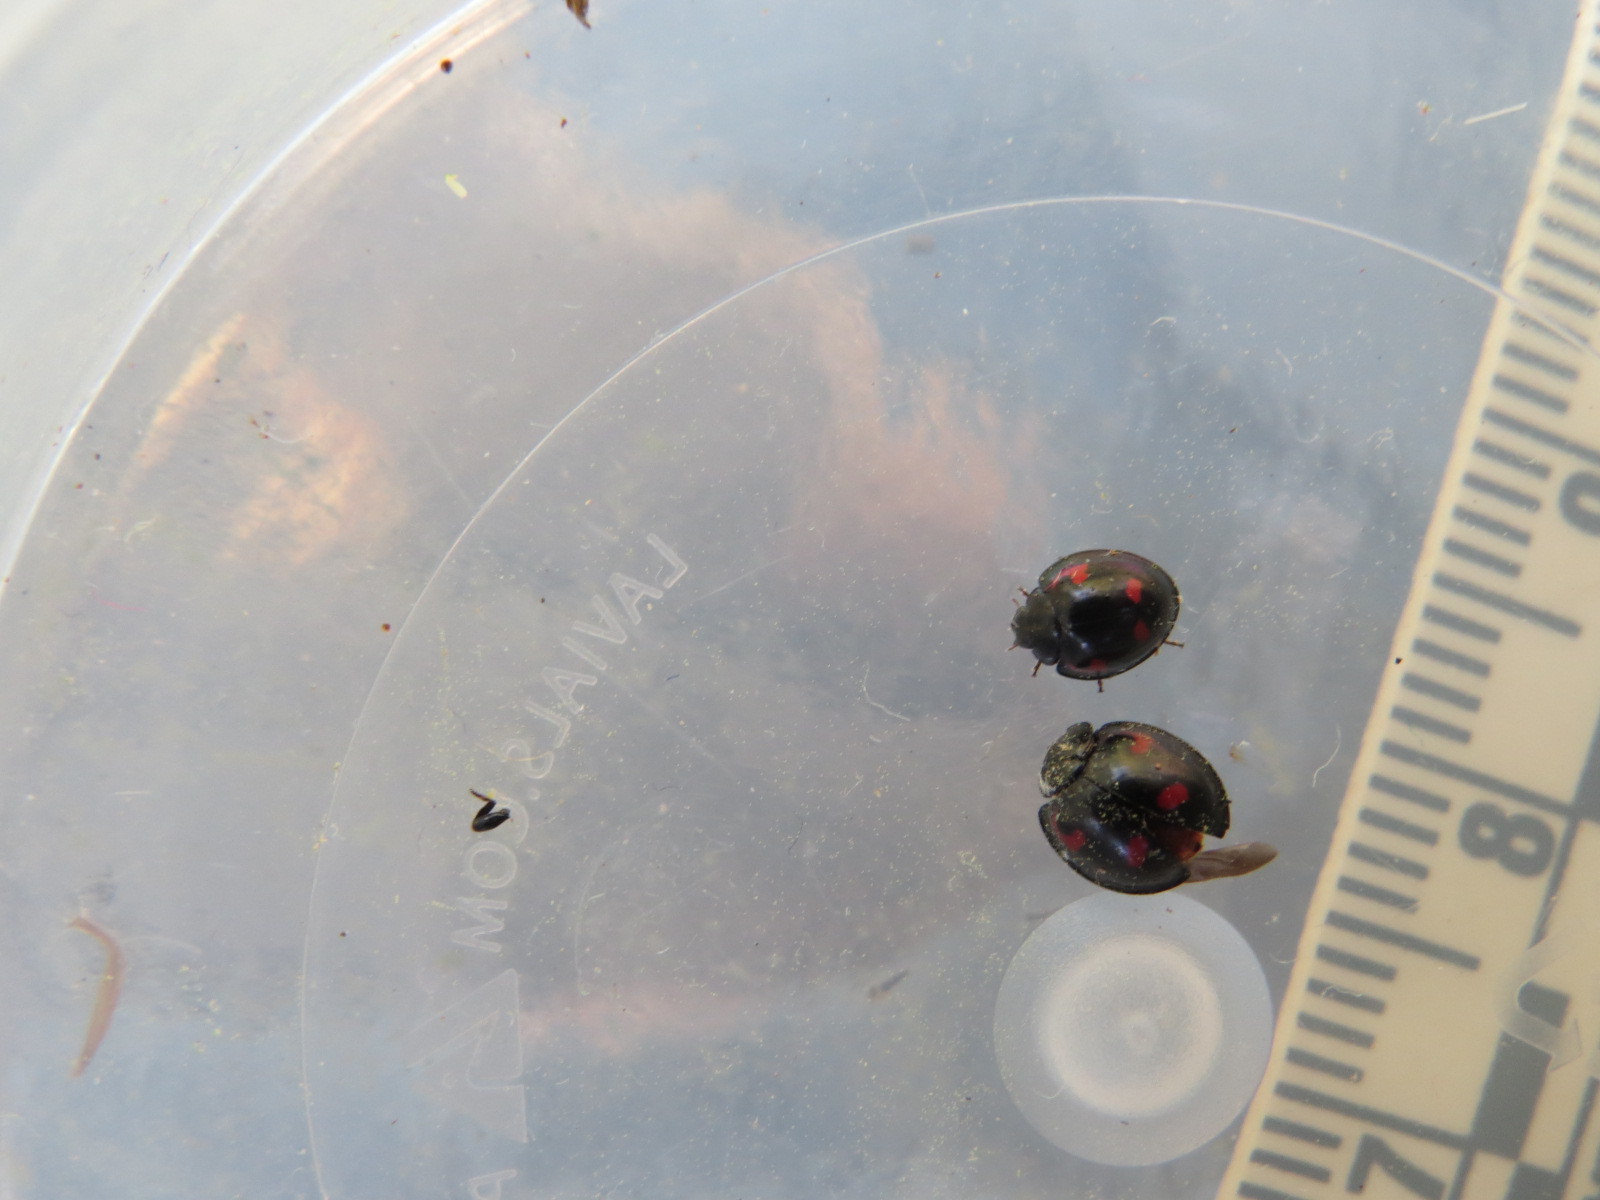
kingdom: Animalia
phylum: Arthropoda
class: Insecta
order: Coleoptera
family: Coccinellidae
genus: Brumus
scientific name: Brumus quadripustulatus
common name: Ladybird beetle
